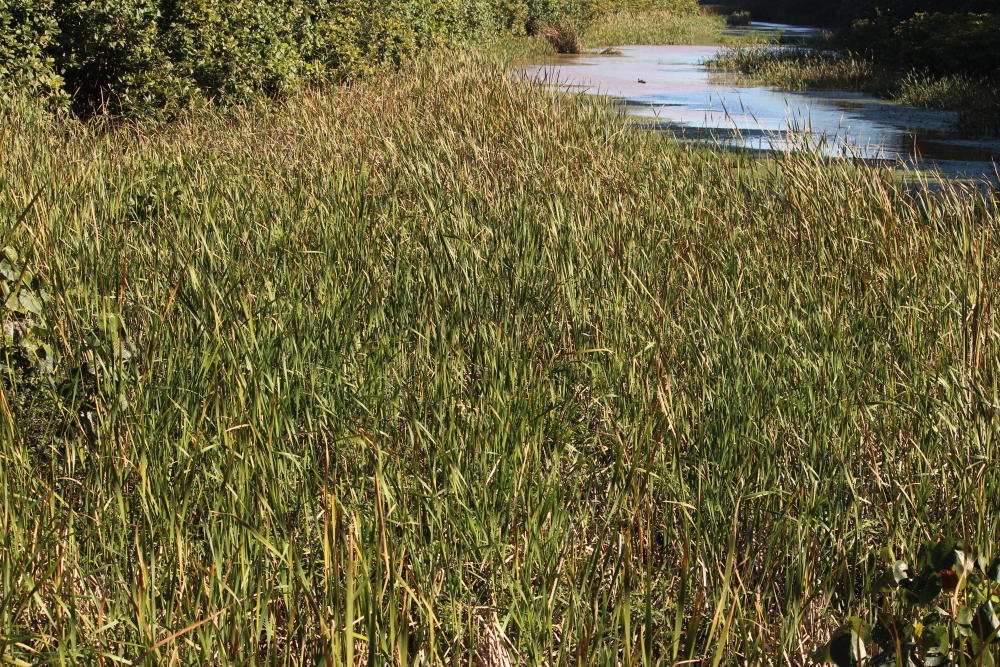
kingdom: Plantae
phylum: Tracheophyta
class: Liliopsida
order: Poales
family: Typhaceae
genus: Typha
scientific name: Typha capensis
